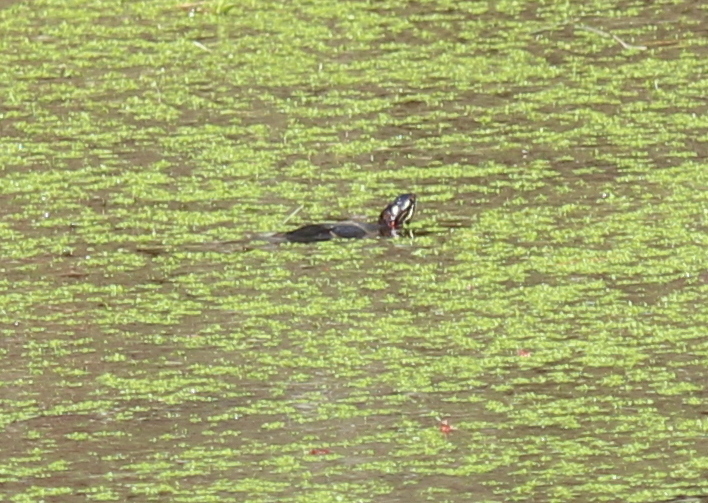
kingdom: Animalia
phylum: Chordata
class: Testudines
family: Emydidae
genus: Chrysemys
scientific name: Chrysemys picta
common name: Painted turtle
